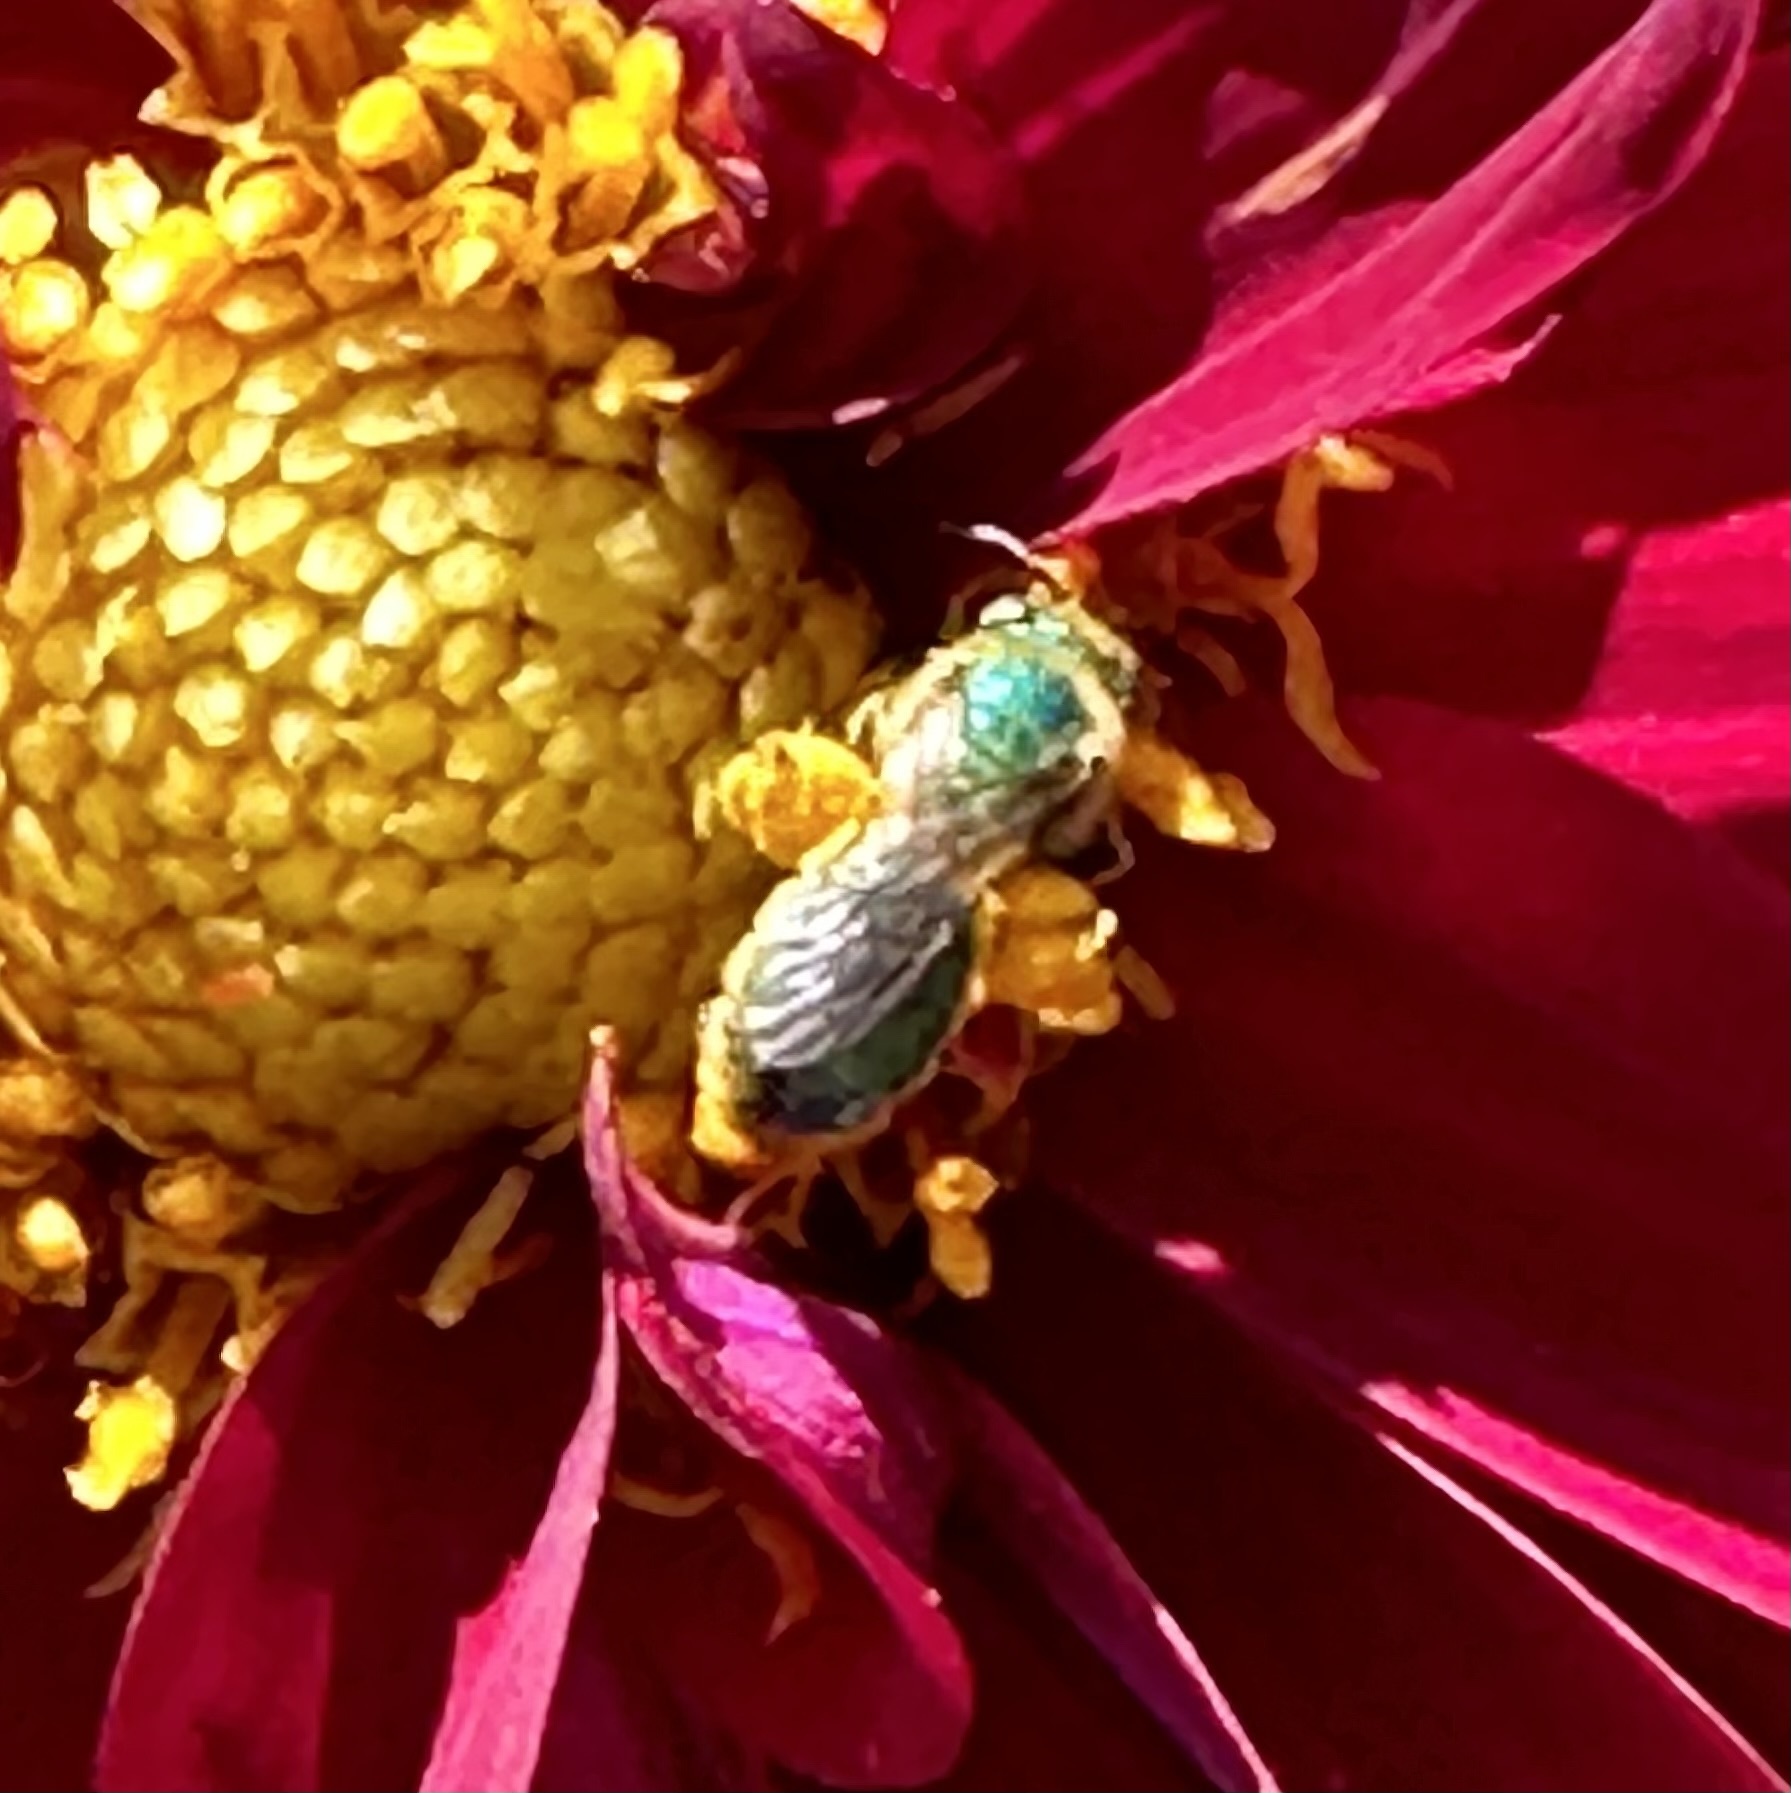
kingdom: Animalia
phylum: Arthropoda
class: Insecta
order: Hymenoptera
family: Halictidae
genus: Agapostemon
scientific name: Agapostemon texanus
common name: Texas striped sweat bee
